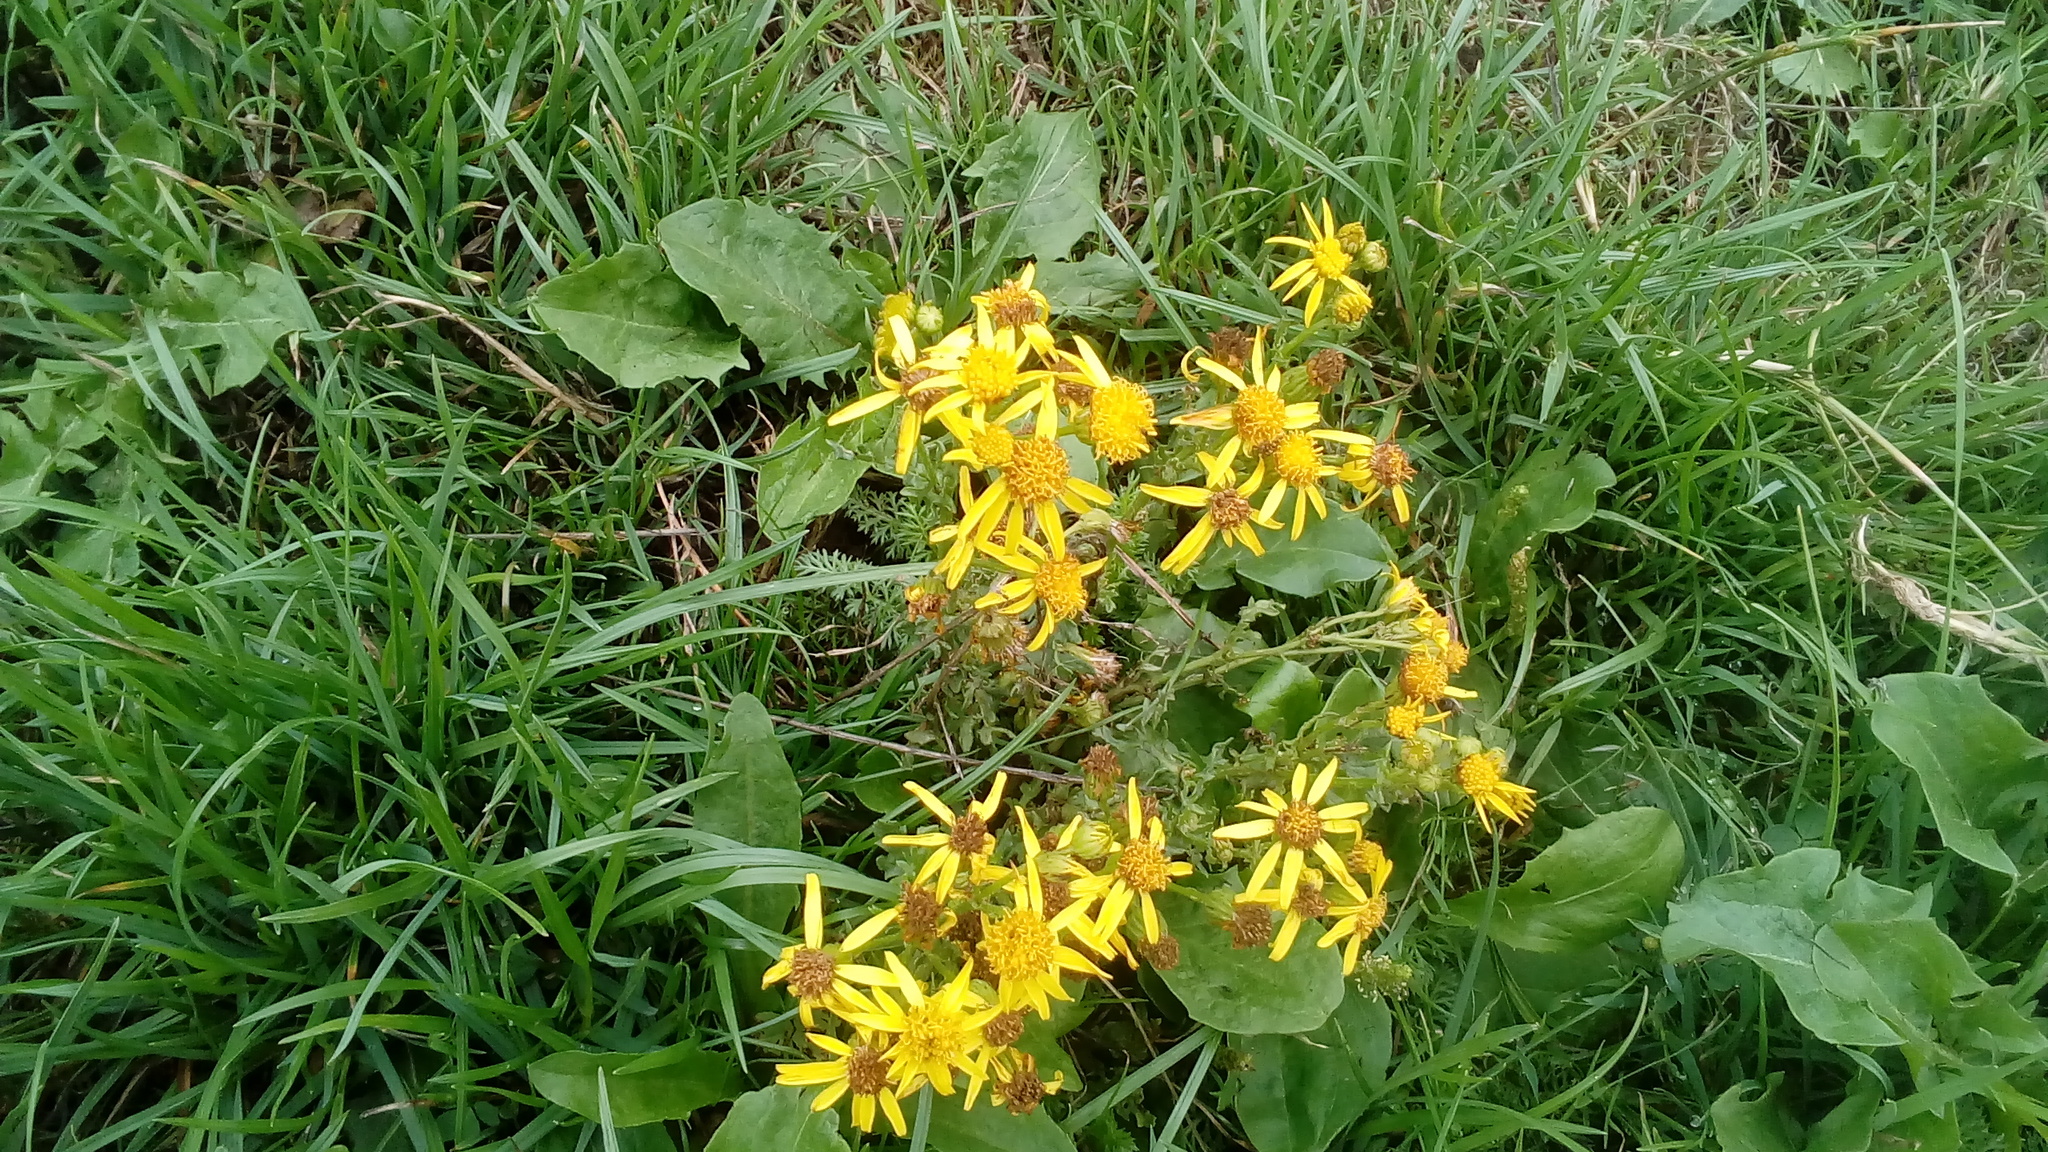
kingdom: Plantae
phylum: Tracheophyta
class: Magnoliopsida
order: Asterales
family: Asteraceae
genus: Jacobaea
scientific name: Jacobaea vulgaris
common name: Stinking willie
